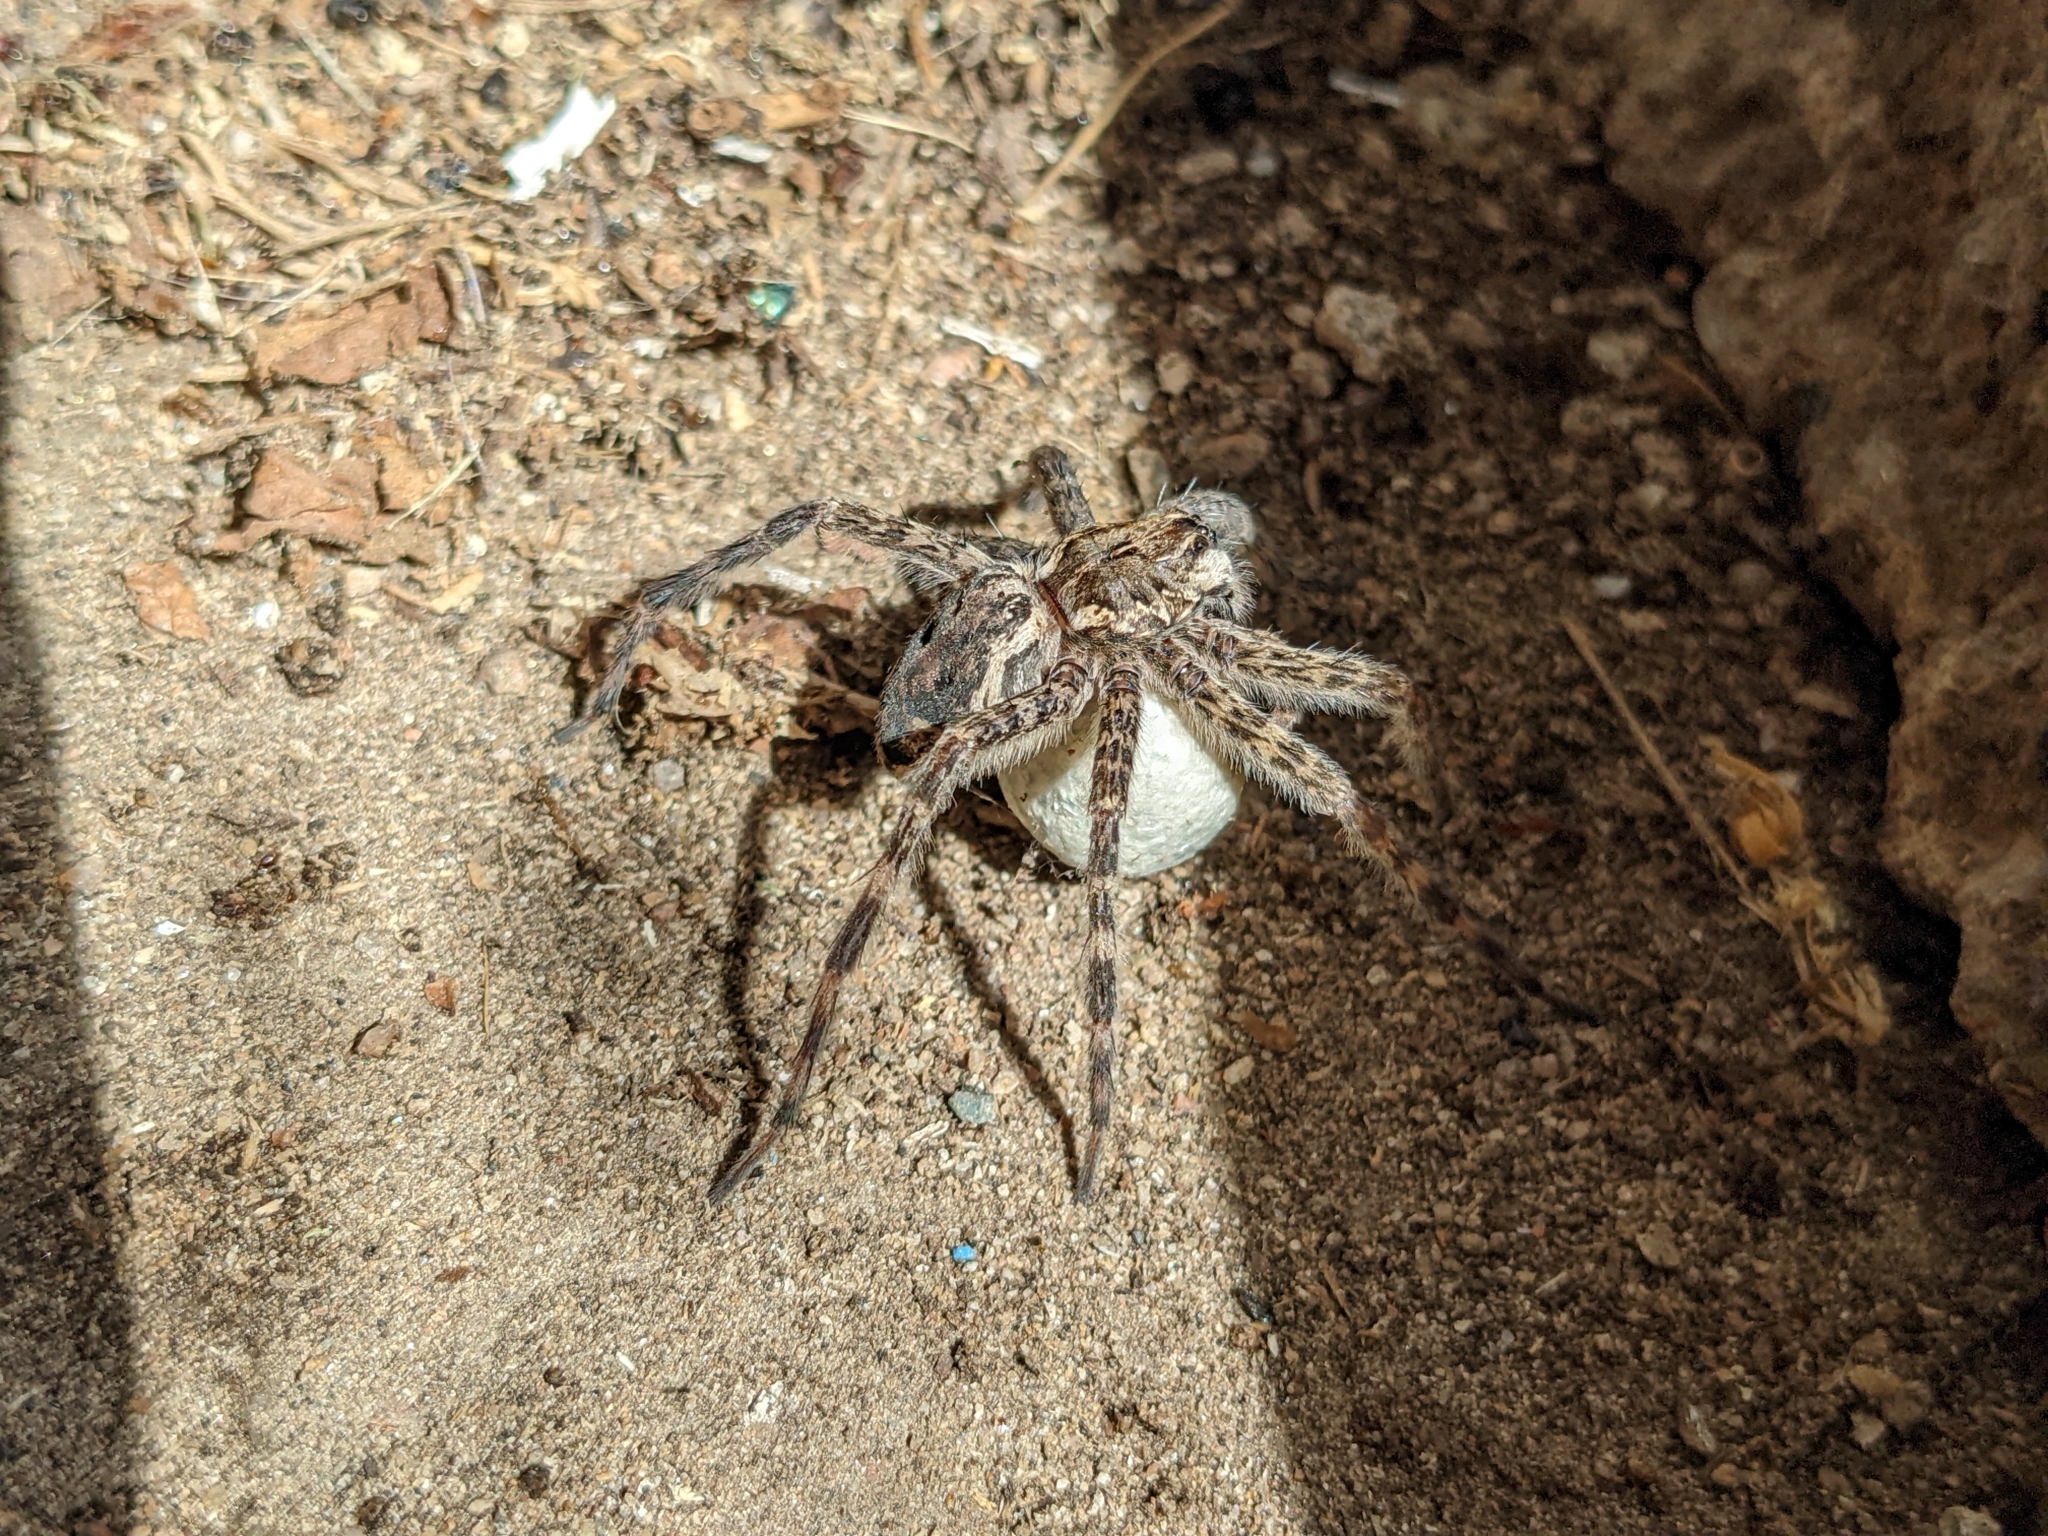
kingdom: Animalia
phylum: Arthropoda
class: Arachnida
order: Araneae
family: Pisauridae
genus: Dolomedes
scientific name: Dolomedes tenebrosus
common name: Dark fishing spider
